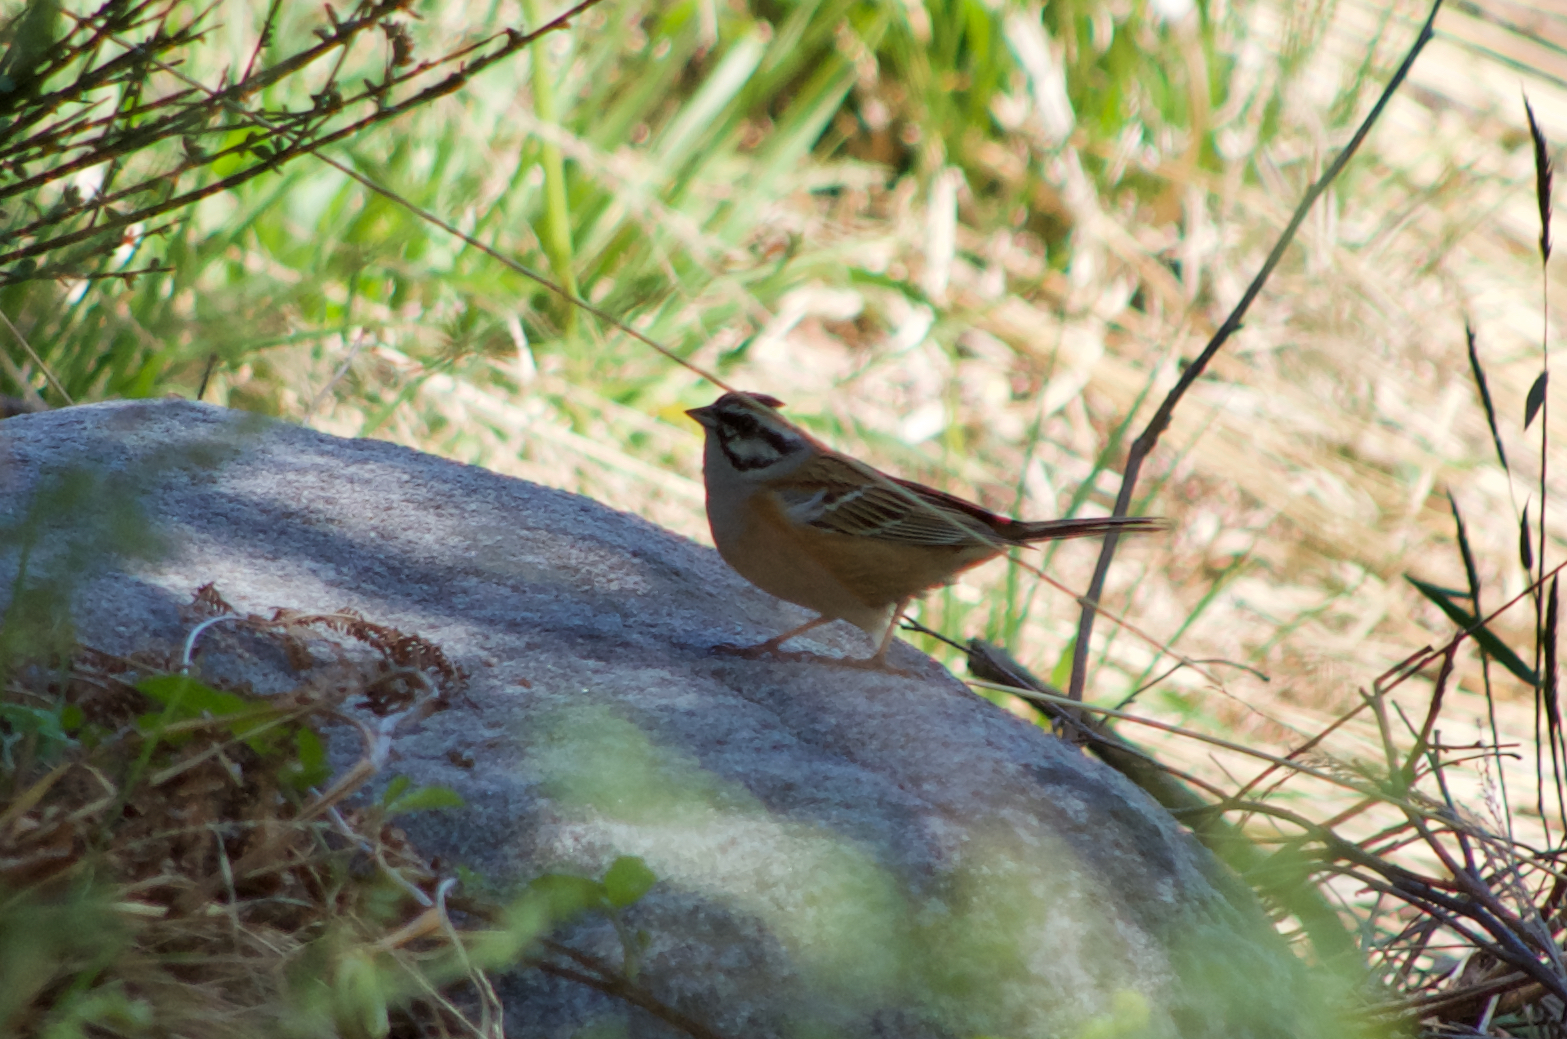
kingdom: Animalia
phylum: Chordata
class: Aves
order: Passeriformes
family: Emberizidae
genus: Emberiza
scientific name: Emberiza cia
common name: Rock bunting
